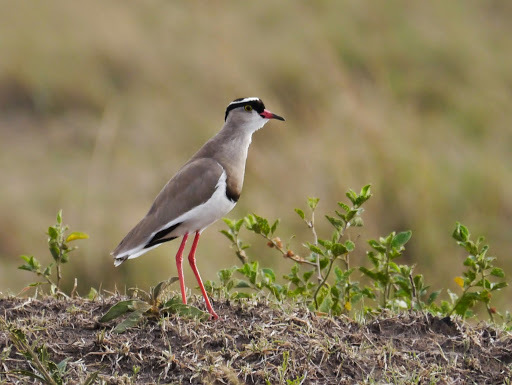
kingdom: Animalia
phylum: Chordata
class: Aves
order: Charadriiformes
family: Charadriidae
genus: Vanellus
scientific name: Vanellus coronatus
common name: Crowned lapwing
